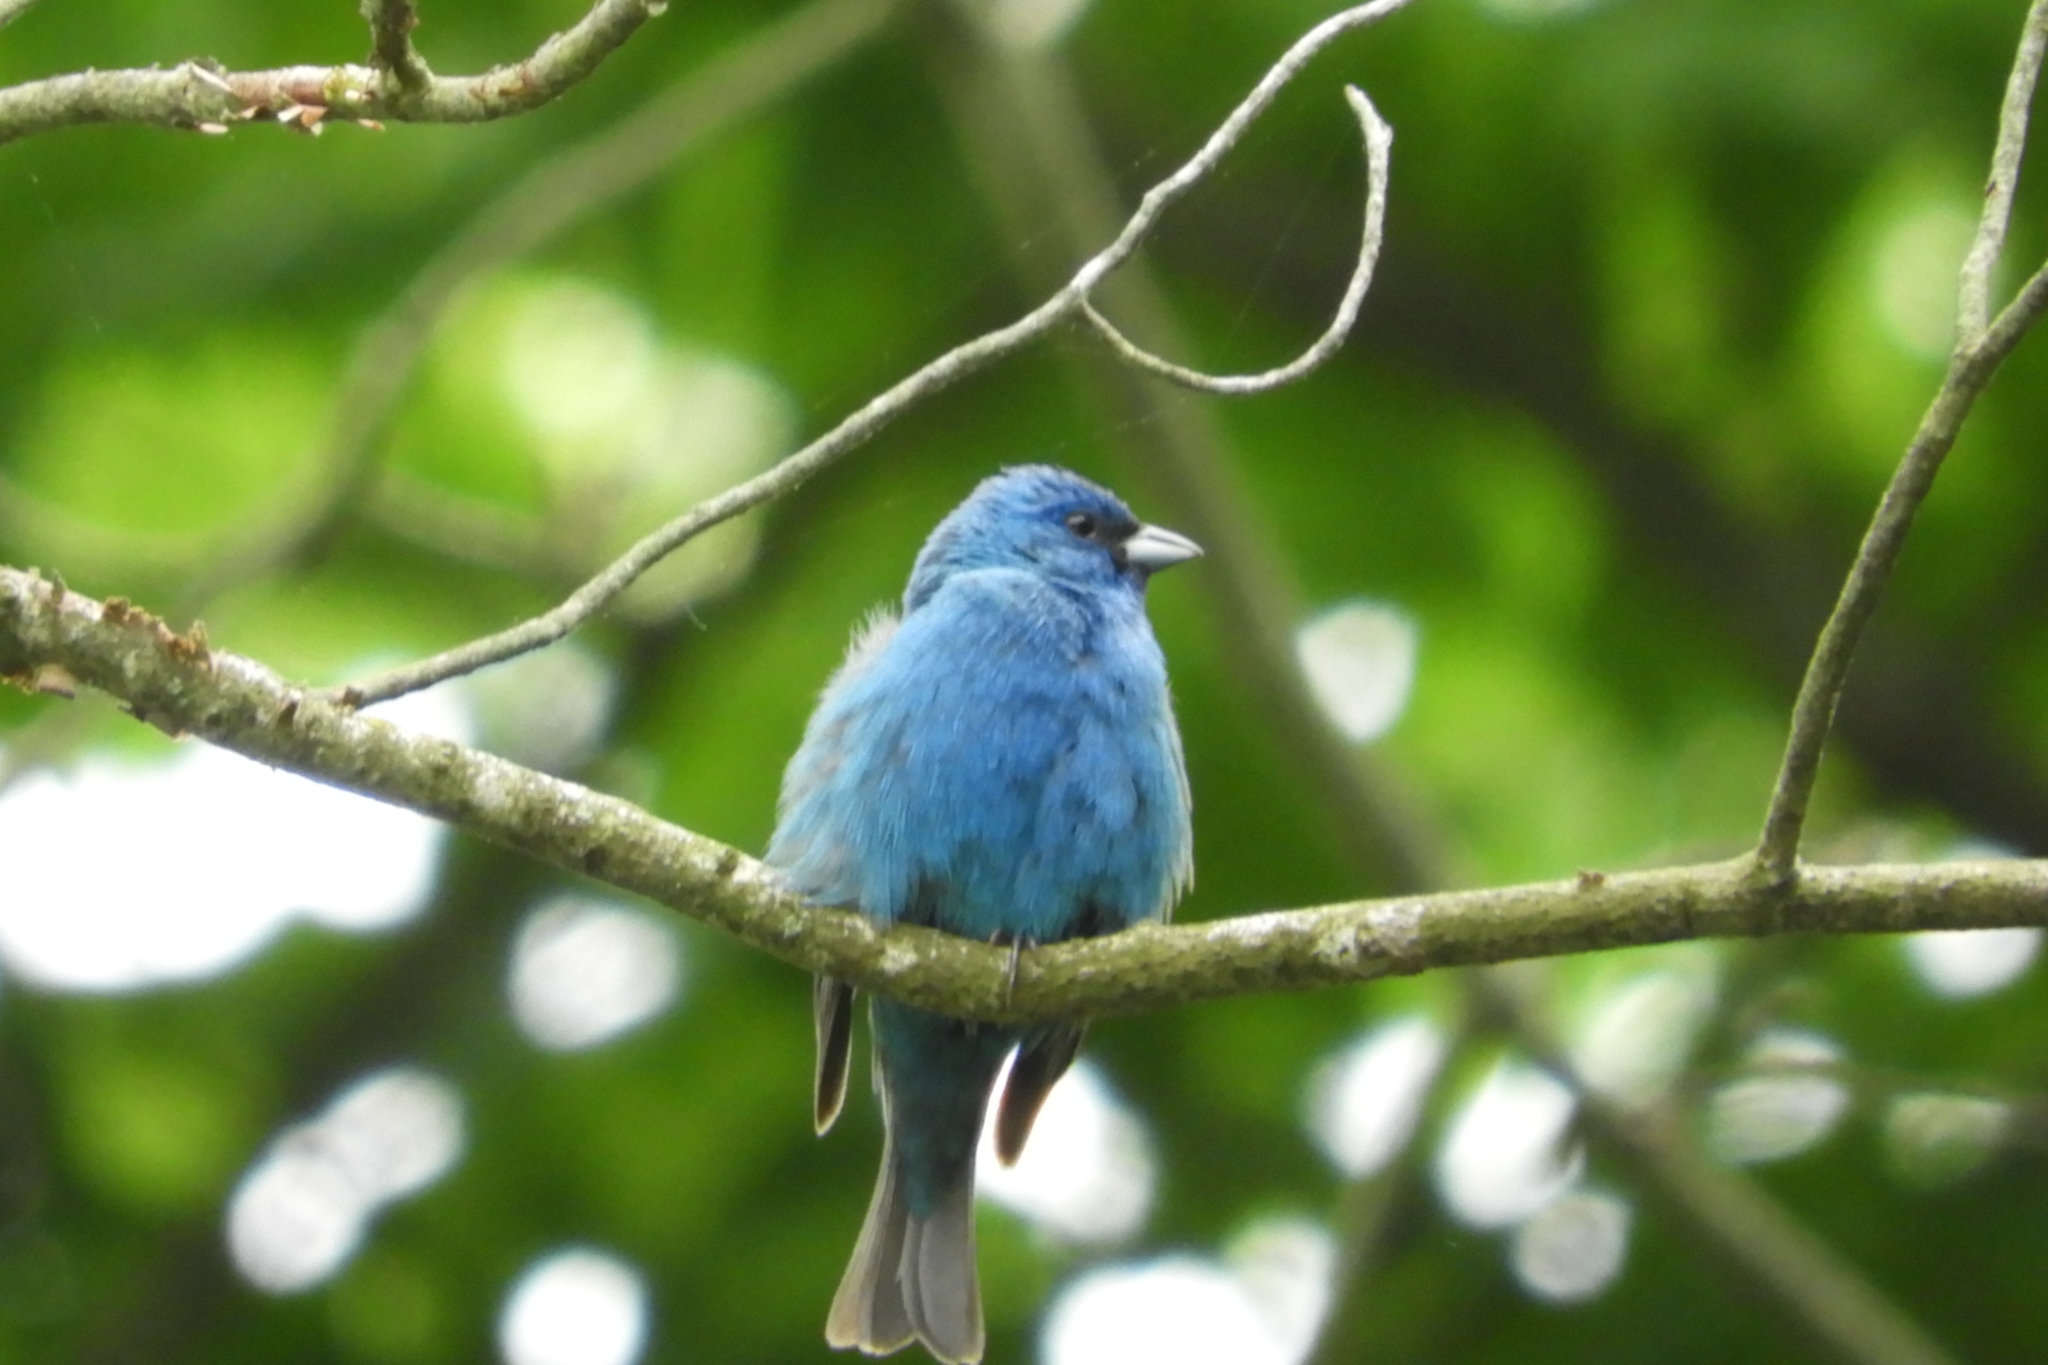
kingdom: Animalia
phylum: Chordata
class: Aves
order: Passeriformes
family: Cardinalidae
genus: Passerina
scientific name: Passerina cyanea
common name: Indigo bunting
